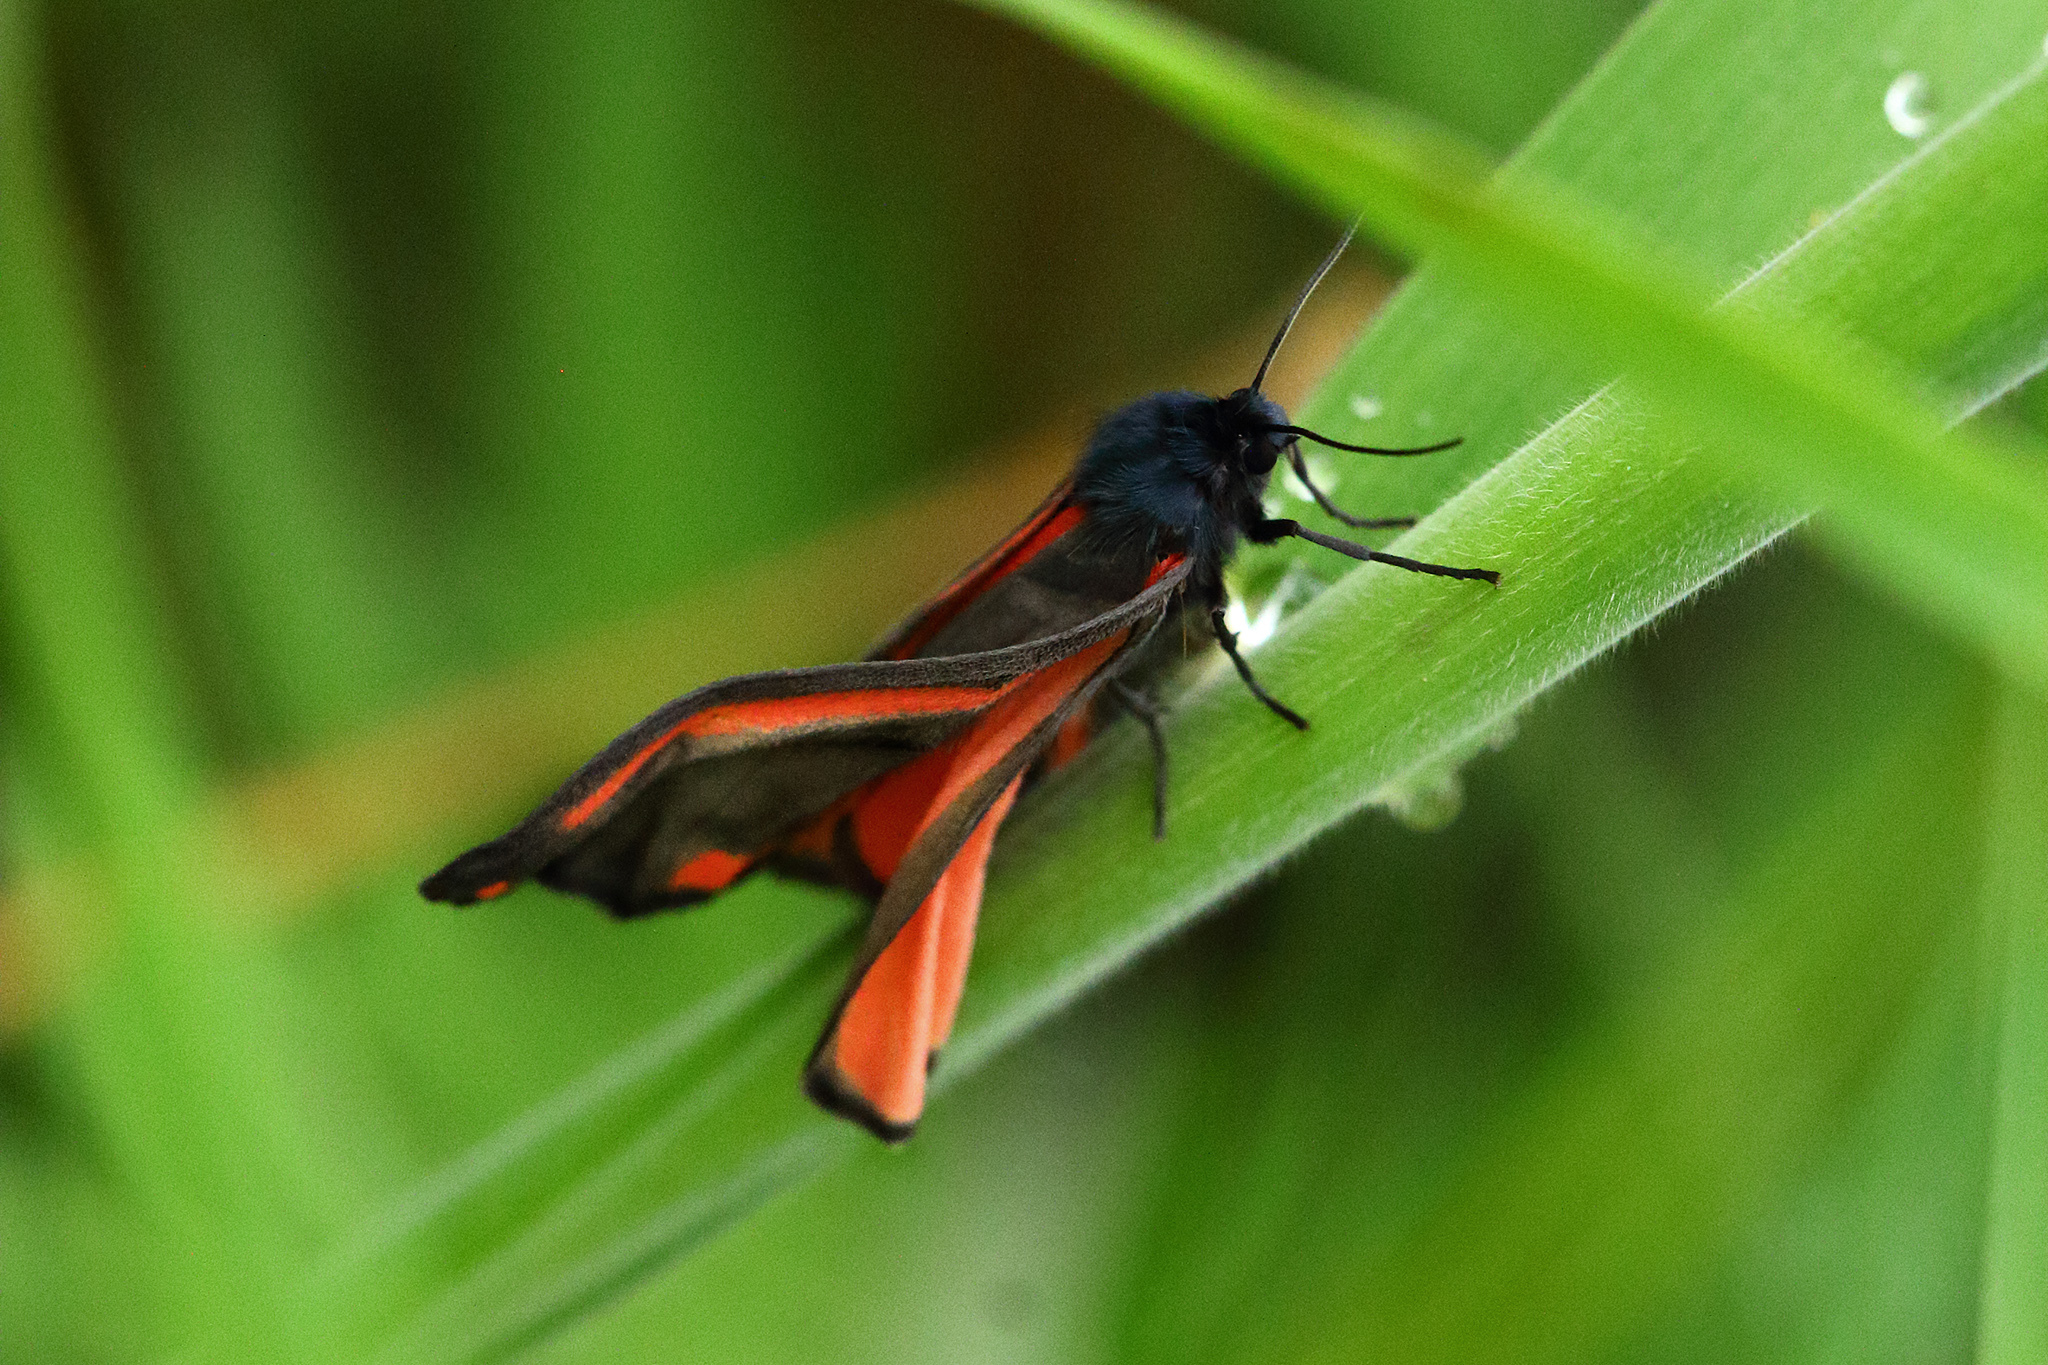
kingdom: Animalia
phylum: Arthropoda
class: Insecta
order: Lepidoptera
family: Erebidae
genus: Tyria
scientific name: Tyria jacobaeae
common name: Cinnabar
